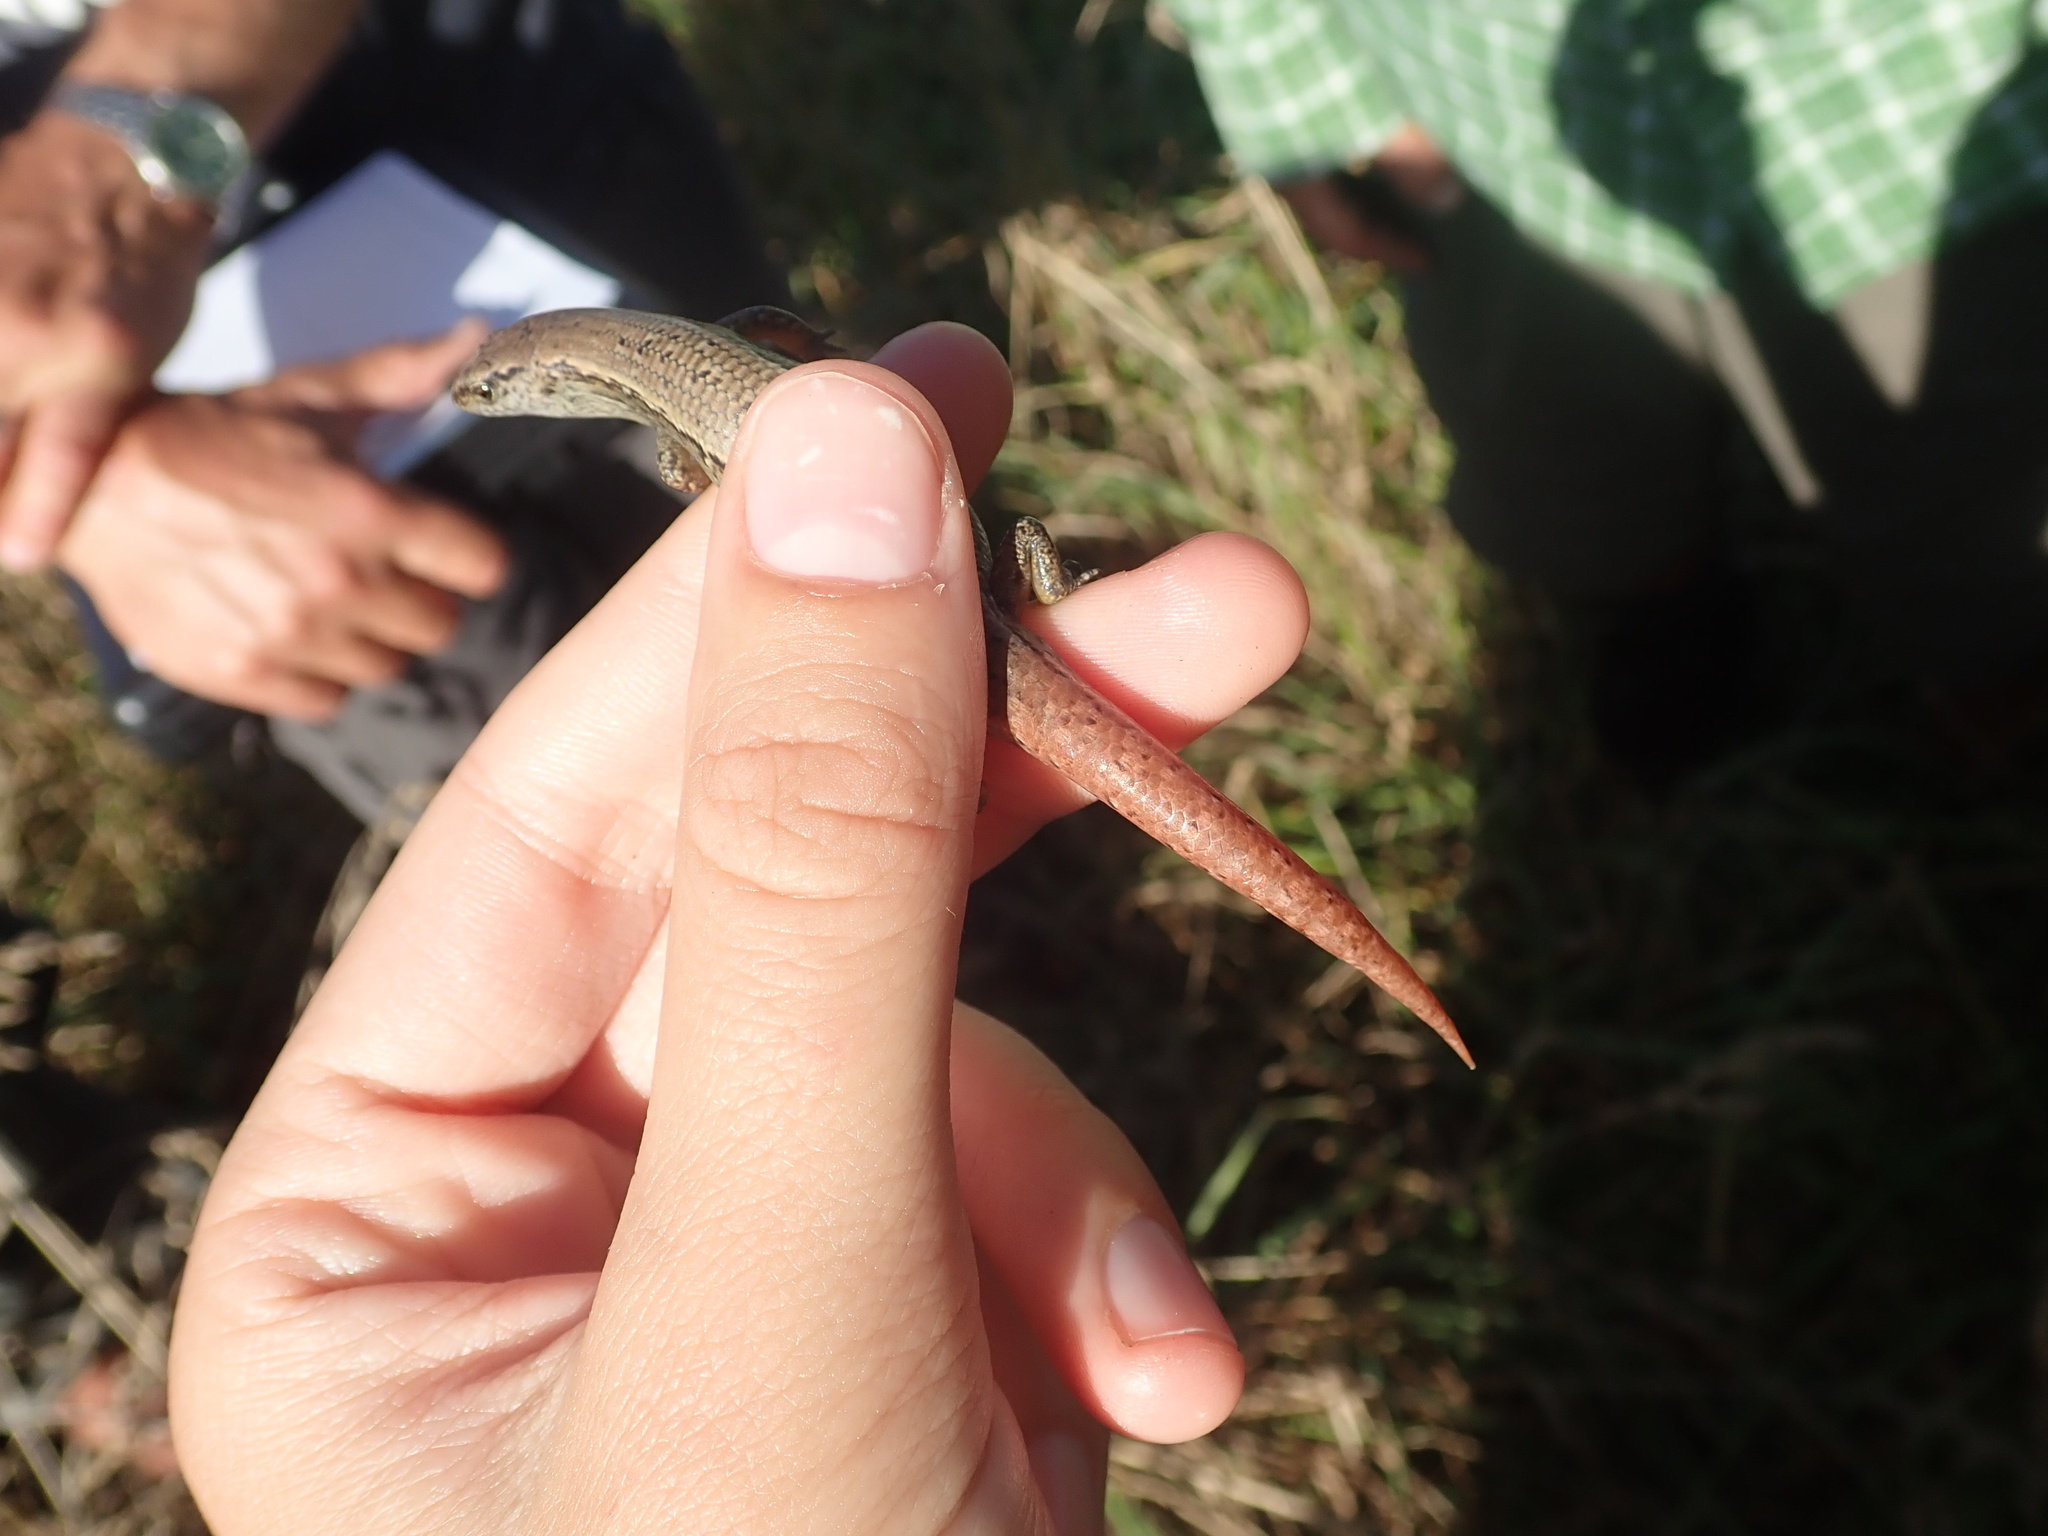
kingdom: Animalia
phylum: Chordata
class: Squamata
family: Scincidae
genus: Oligosoma
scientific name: Oligosoma aeneum
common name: Copper skink
